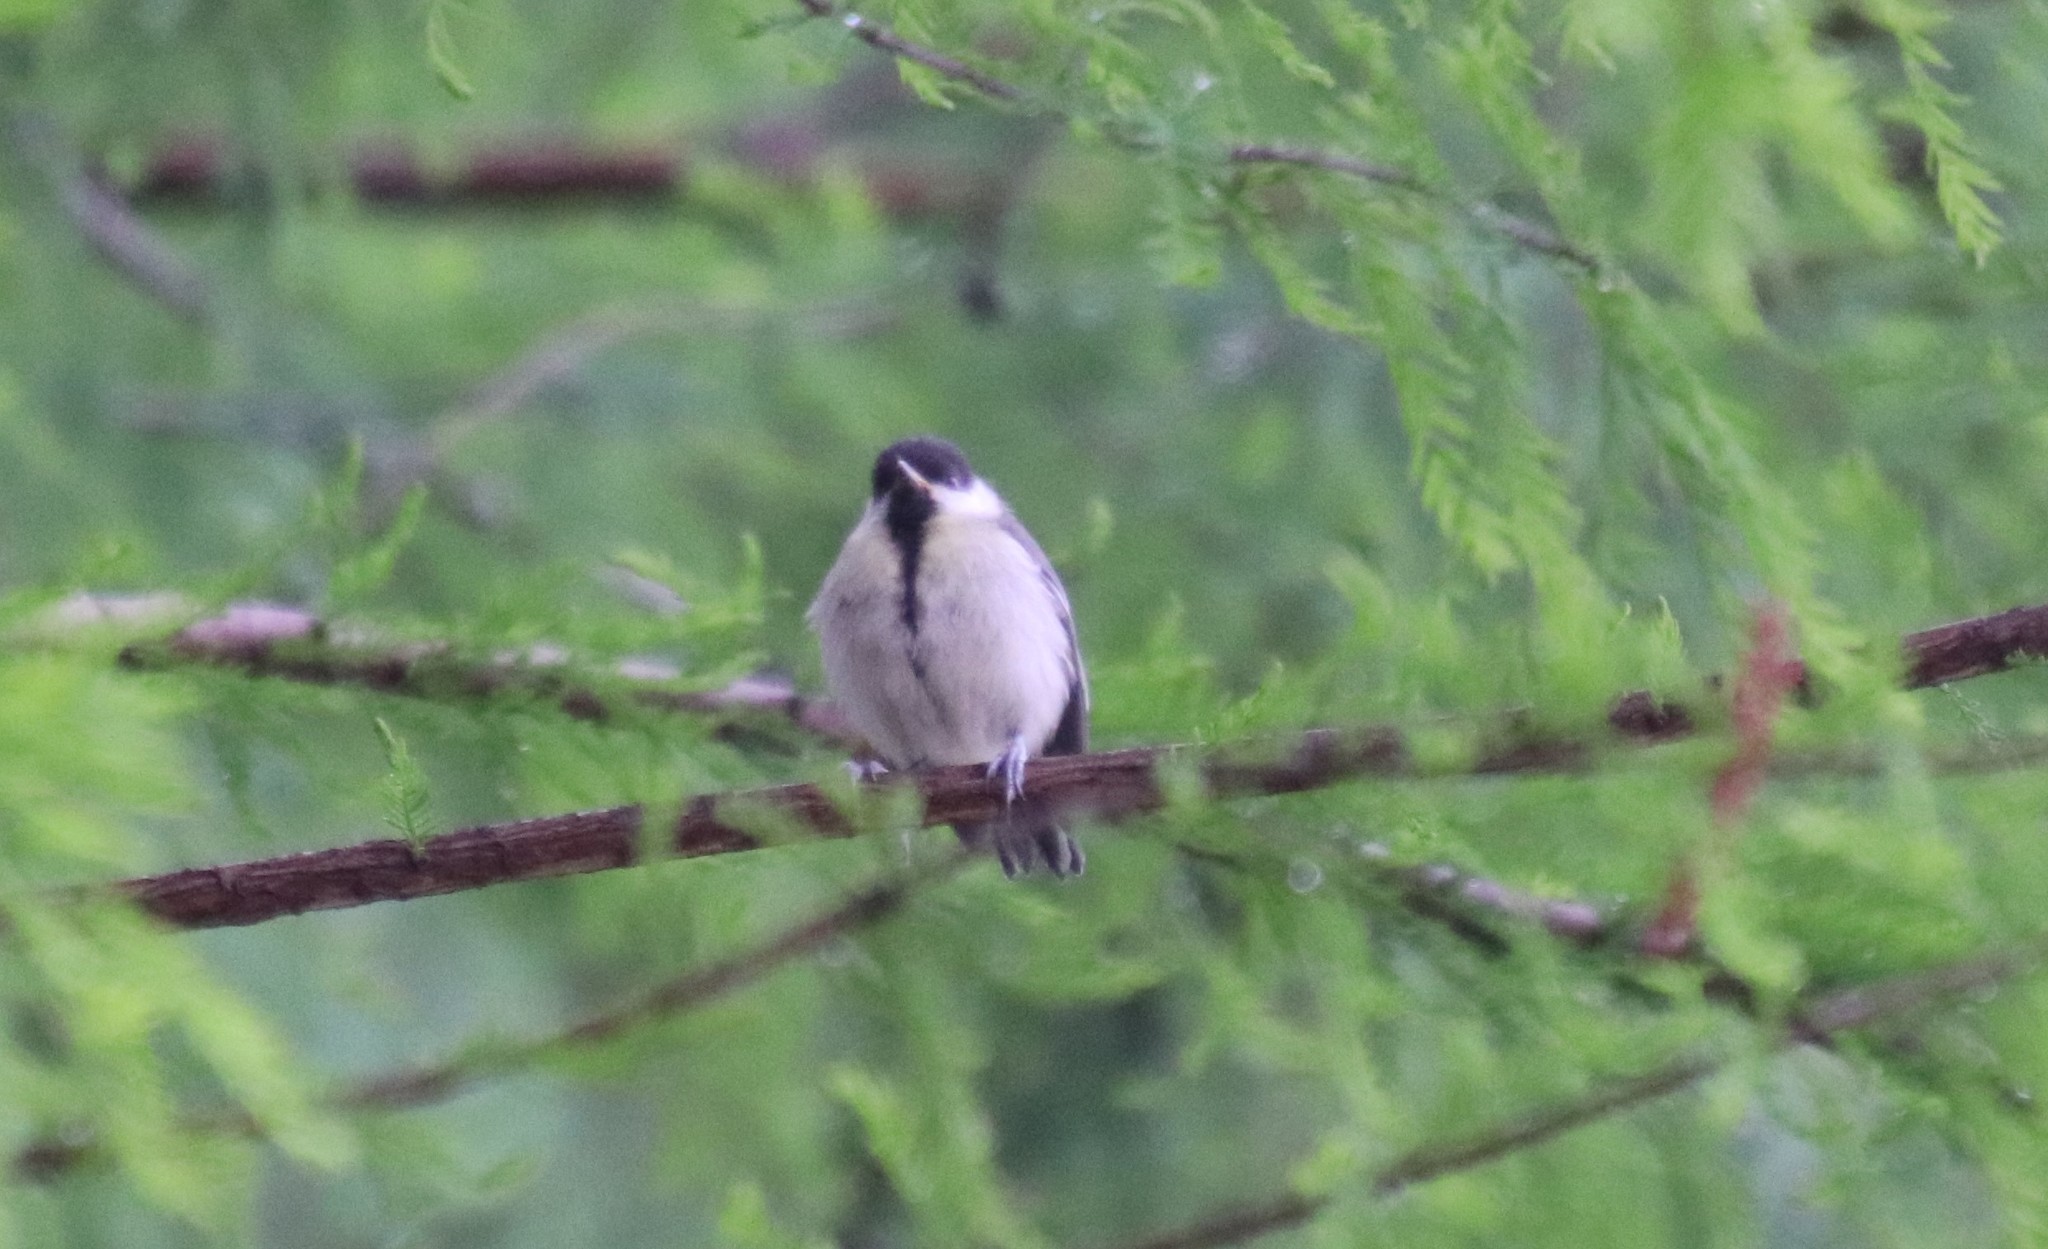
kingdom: Animalia
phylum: Chordata
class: Aves
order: Passeriformes
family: Paridae
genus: Parus
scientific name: Parus major
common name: Great tit
